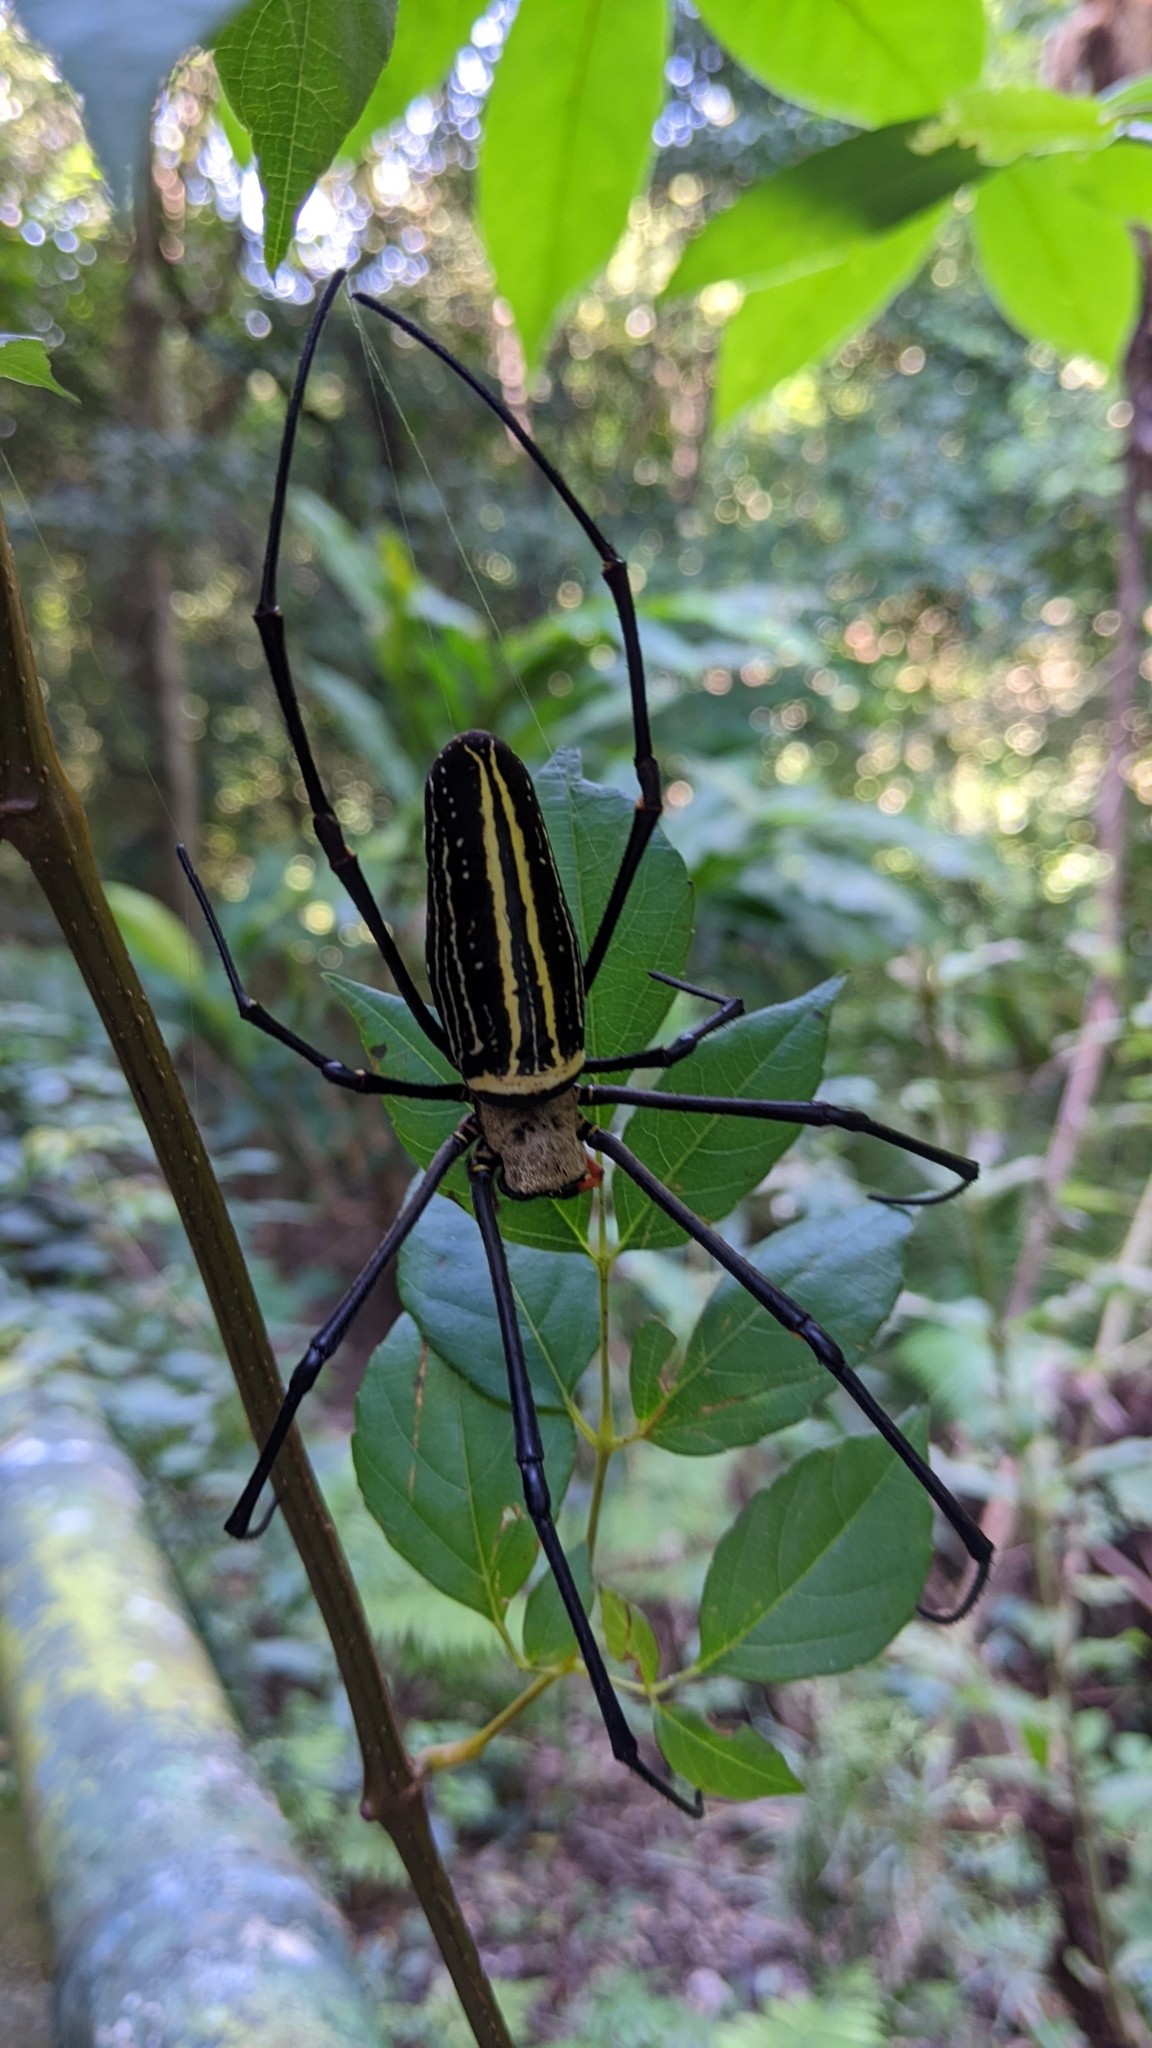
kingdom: Animalia
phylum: Arthropoda
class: Arachnida
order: Araneae
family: Araneidae
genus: Nephila
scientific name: Nephila pilipes
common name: Giant golden orb weaver
